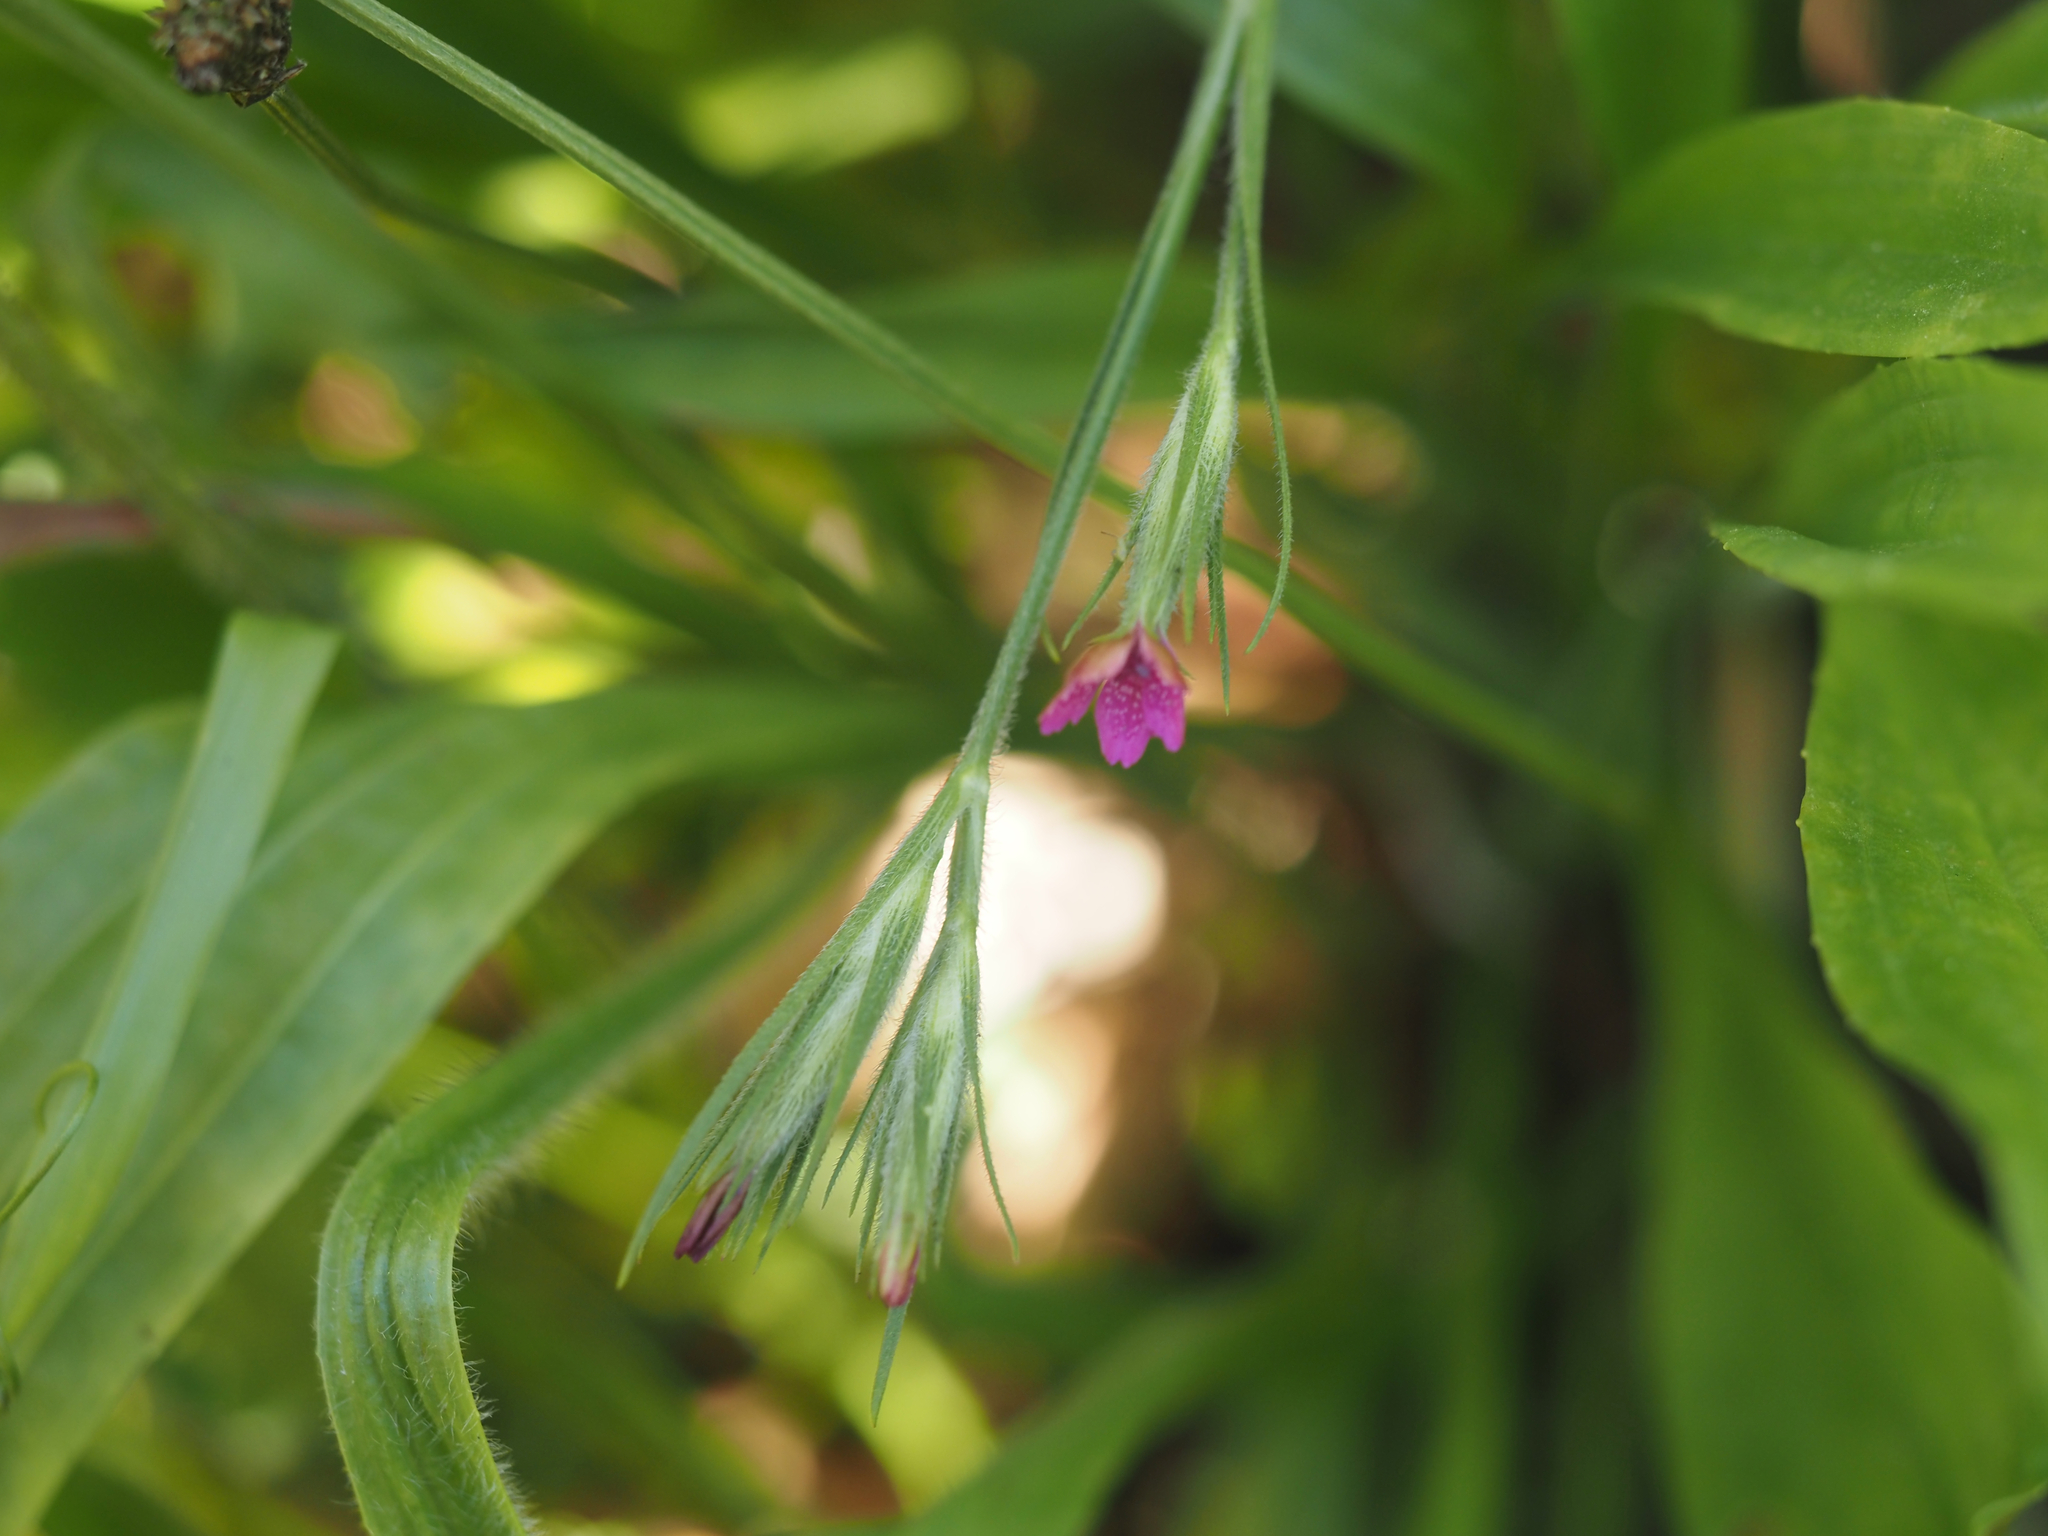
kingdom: Plantae
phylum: Tracheophyta
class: Magnoliopsida
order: Caryophyllales
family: Caryophyllaceae
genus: Dianthus
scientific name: Dianthus armeria
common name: Deptford pink
